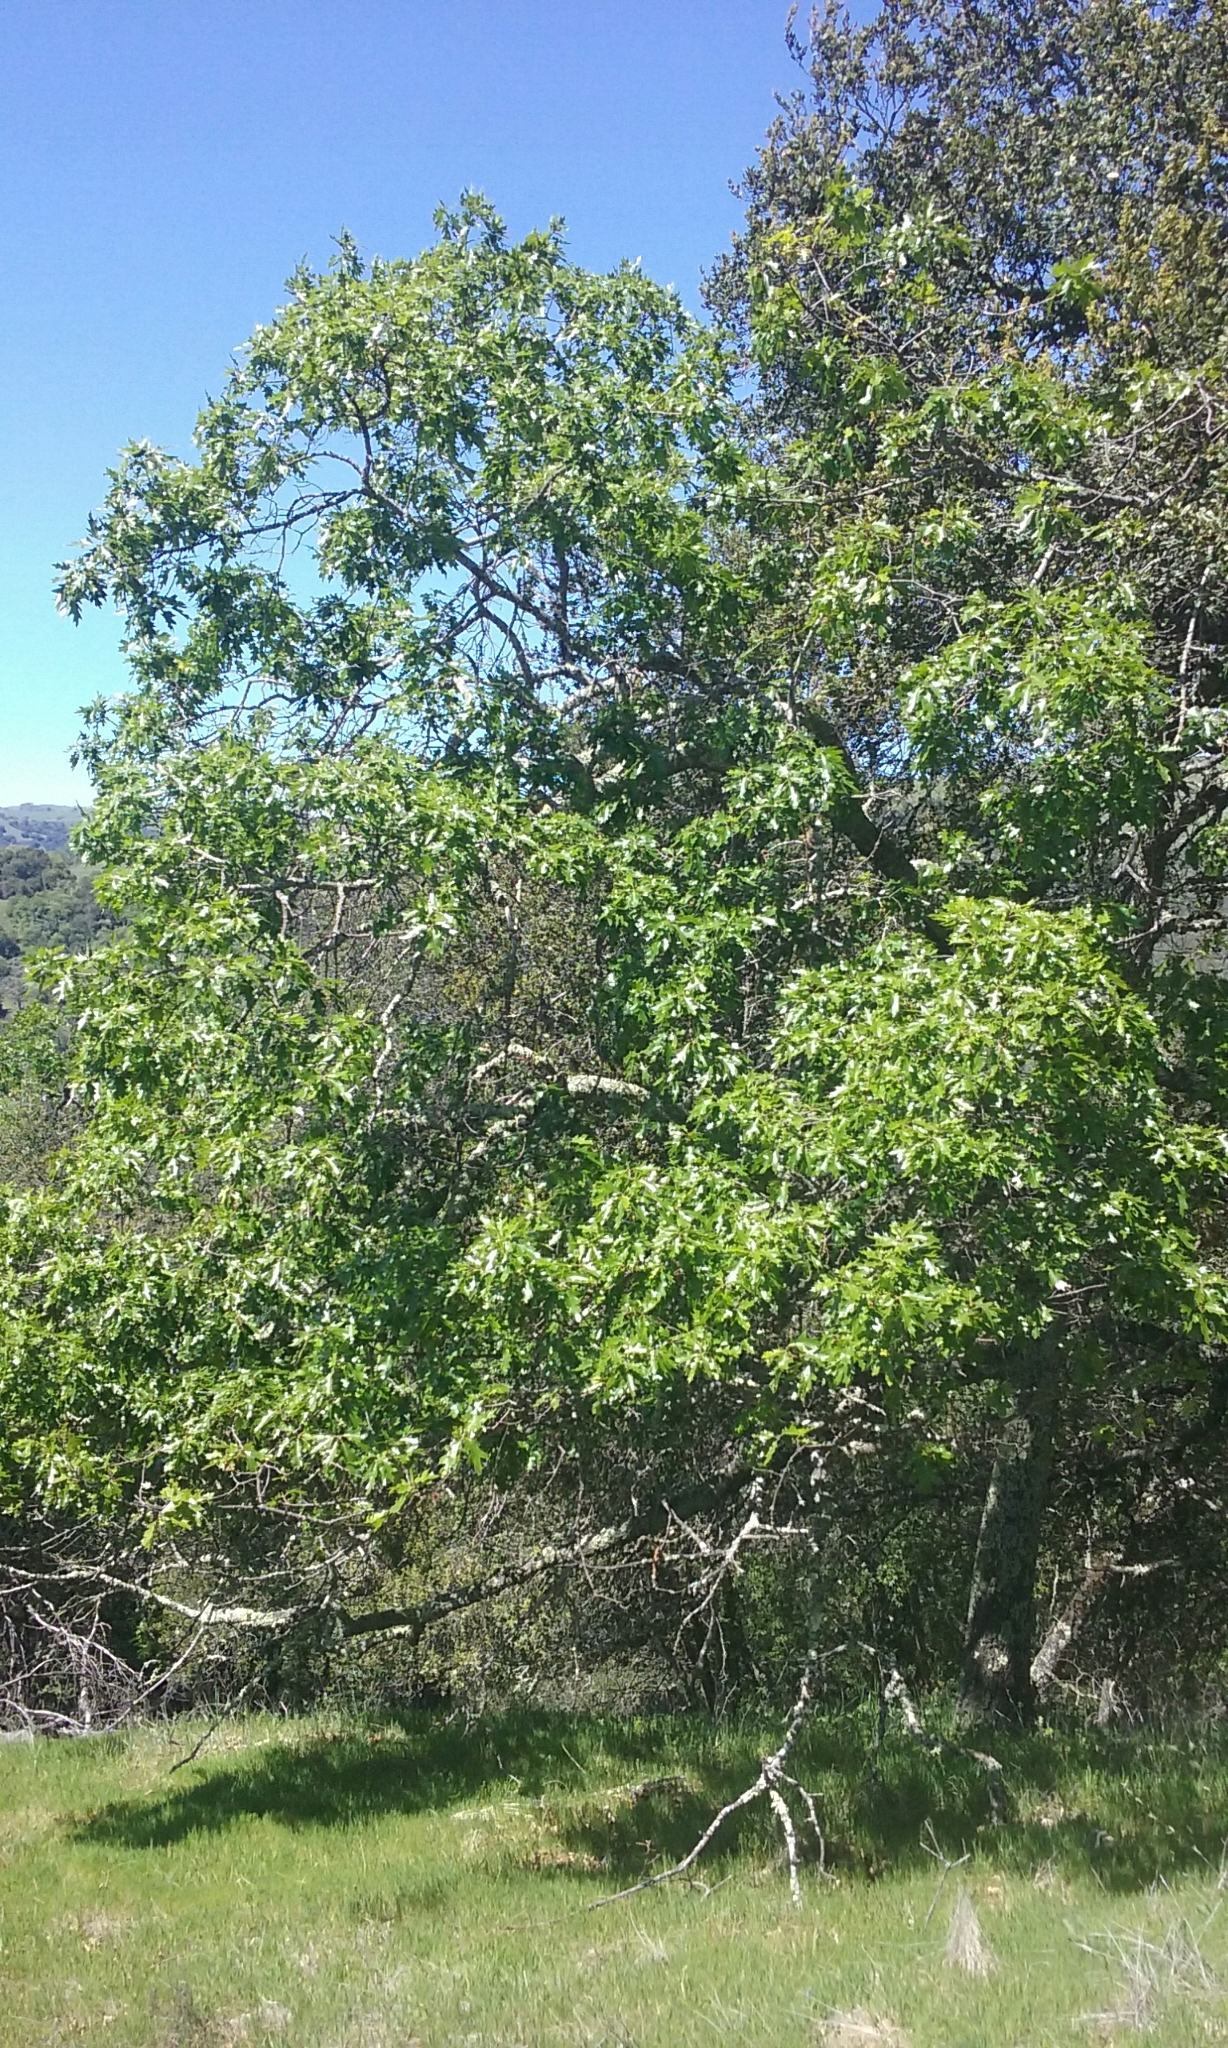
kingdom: Plantae
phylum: Tracheophyta
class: Magnoliopsida
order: Fagales
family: Fagaceae
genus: Quercus
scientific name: Quercus kelloggii
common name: California black oak
